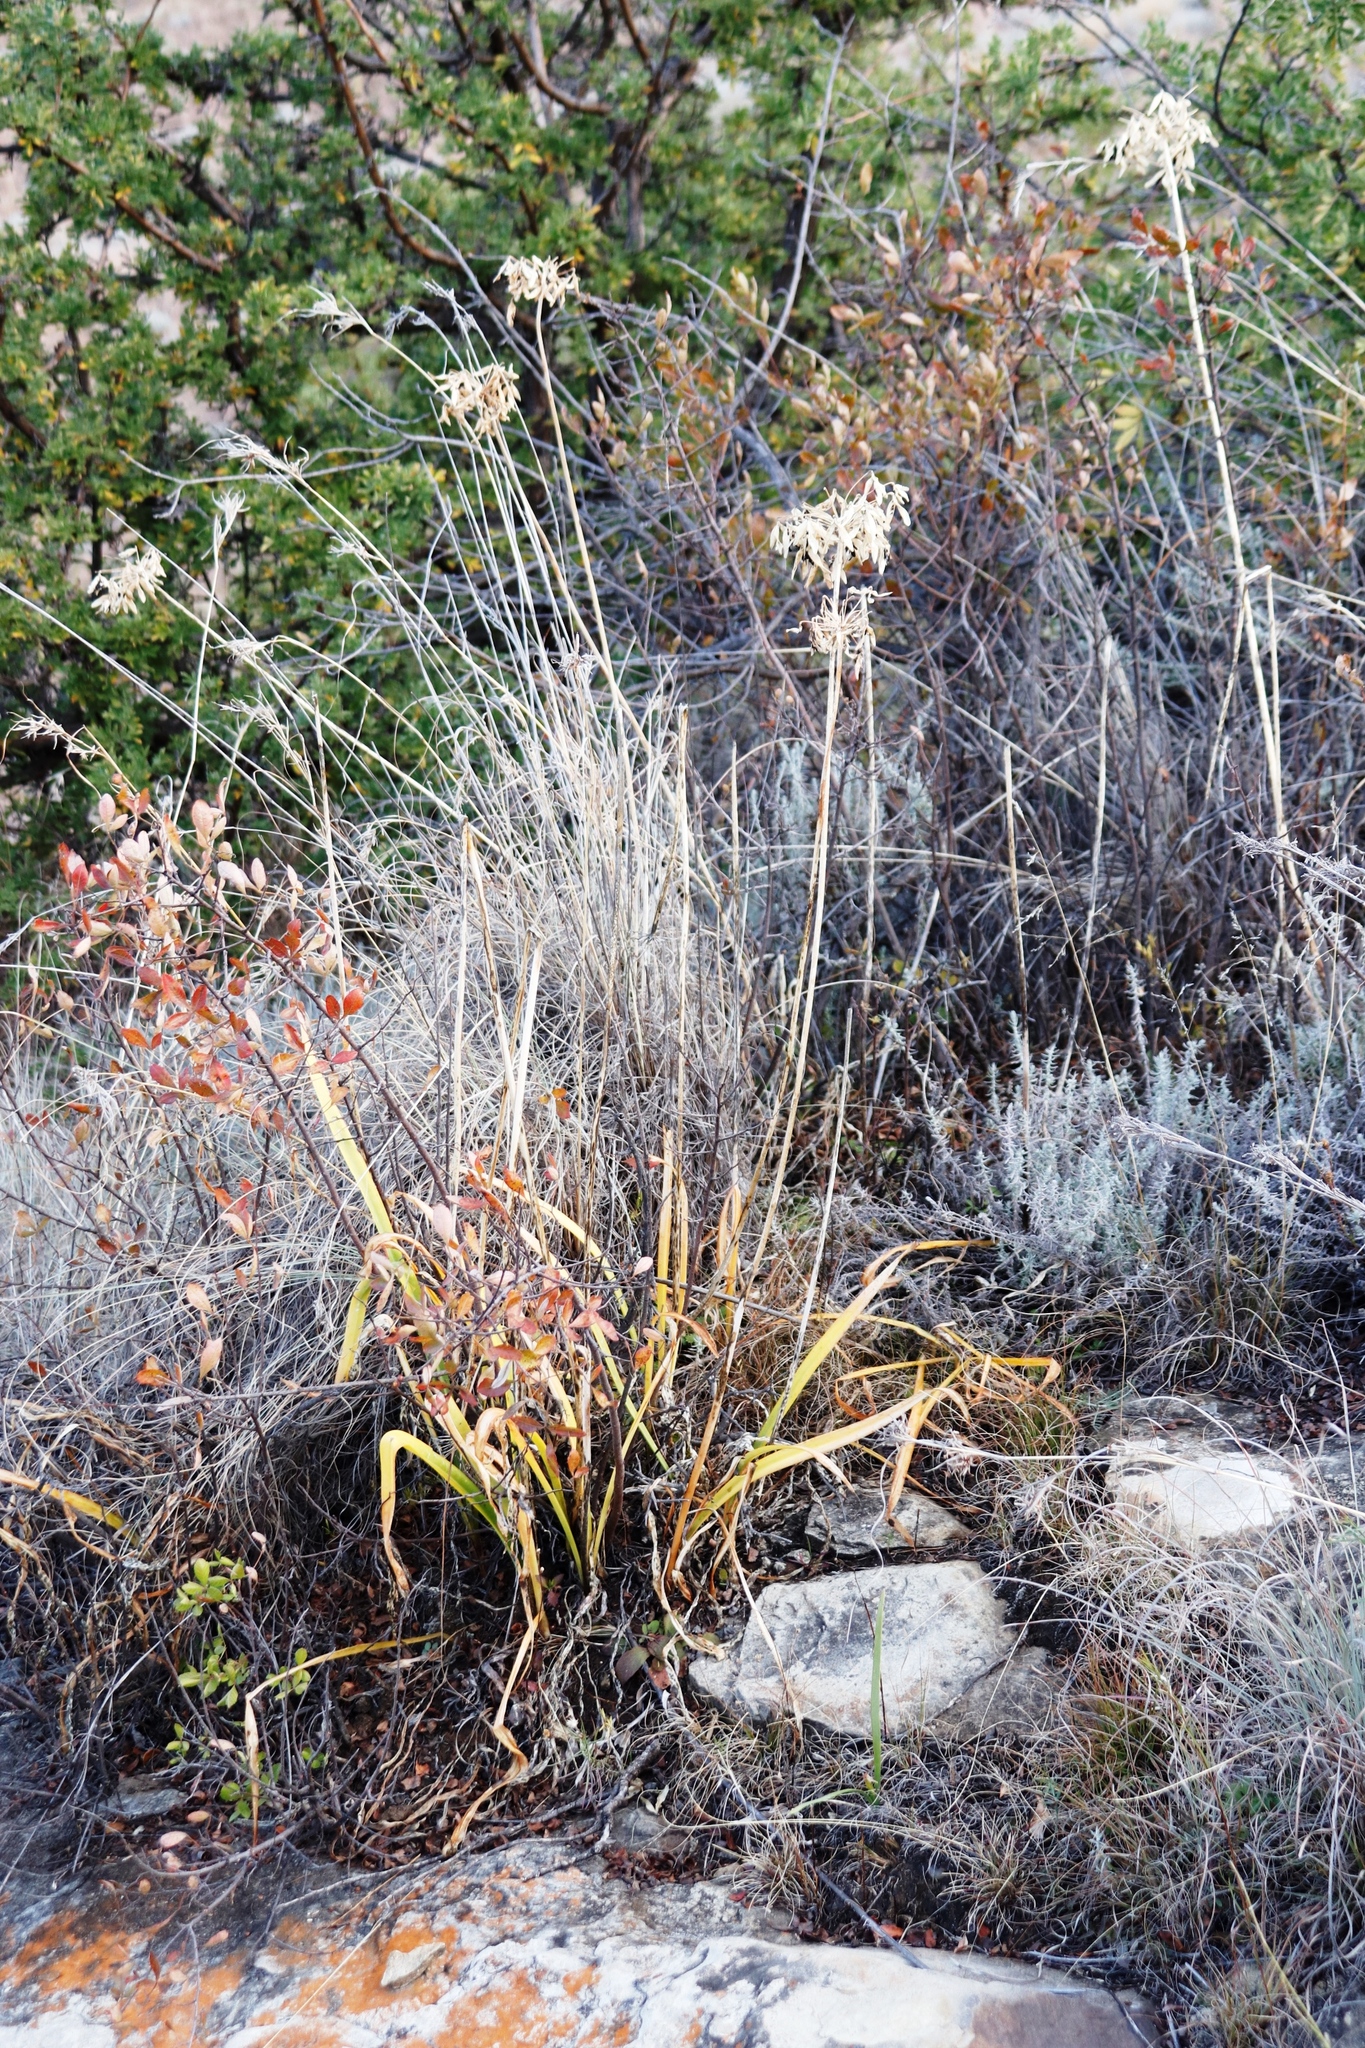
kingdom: Plantae
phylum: Tracheophyta
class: Liliopsida
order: Asparagales
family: Amaryllidaceae
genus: Agapanthus
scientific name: Agapanthus campanulatus
